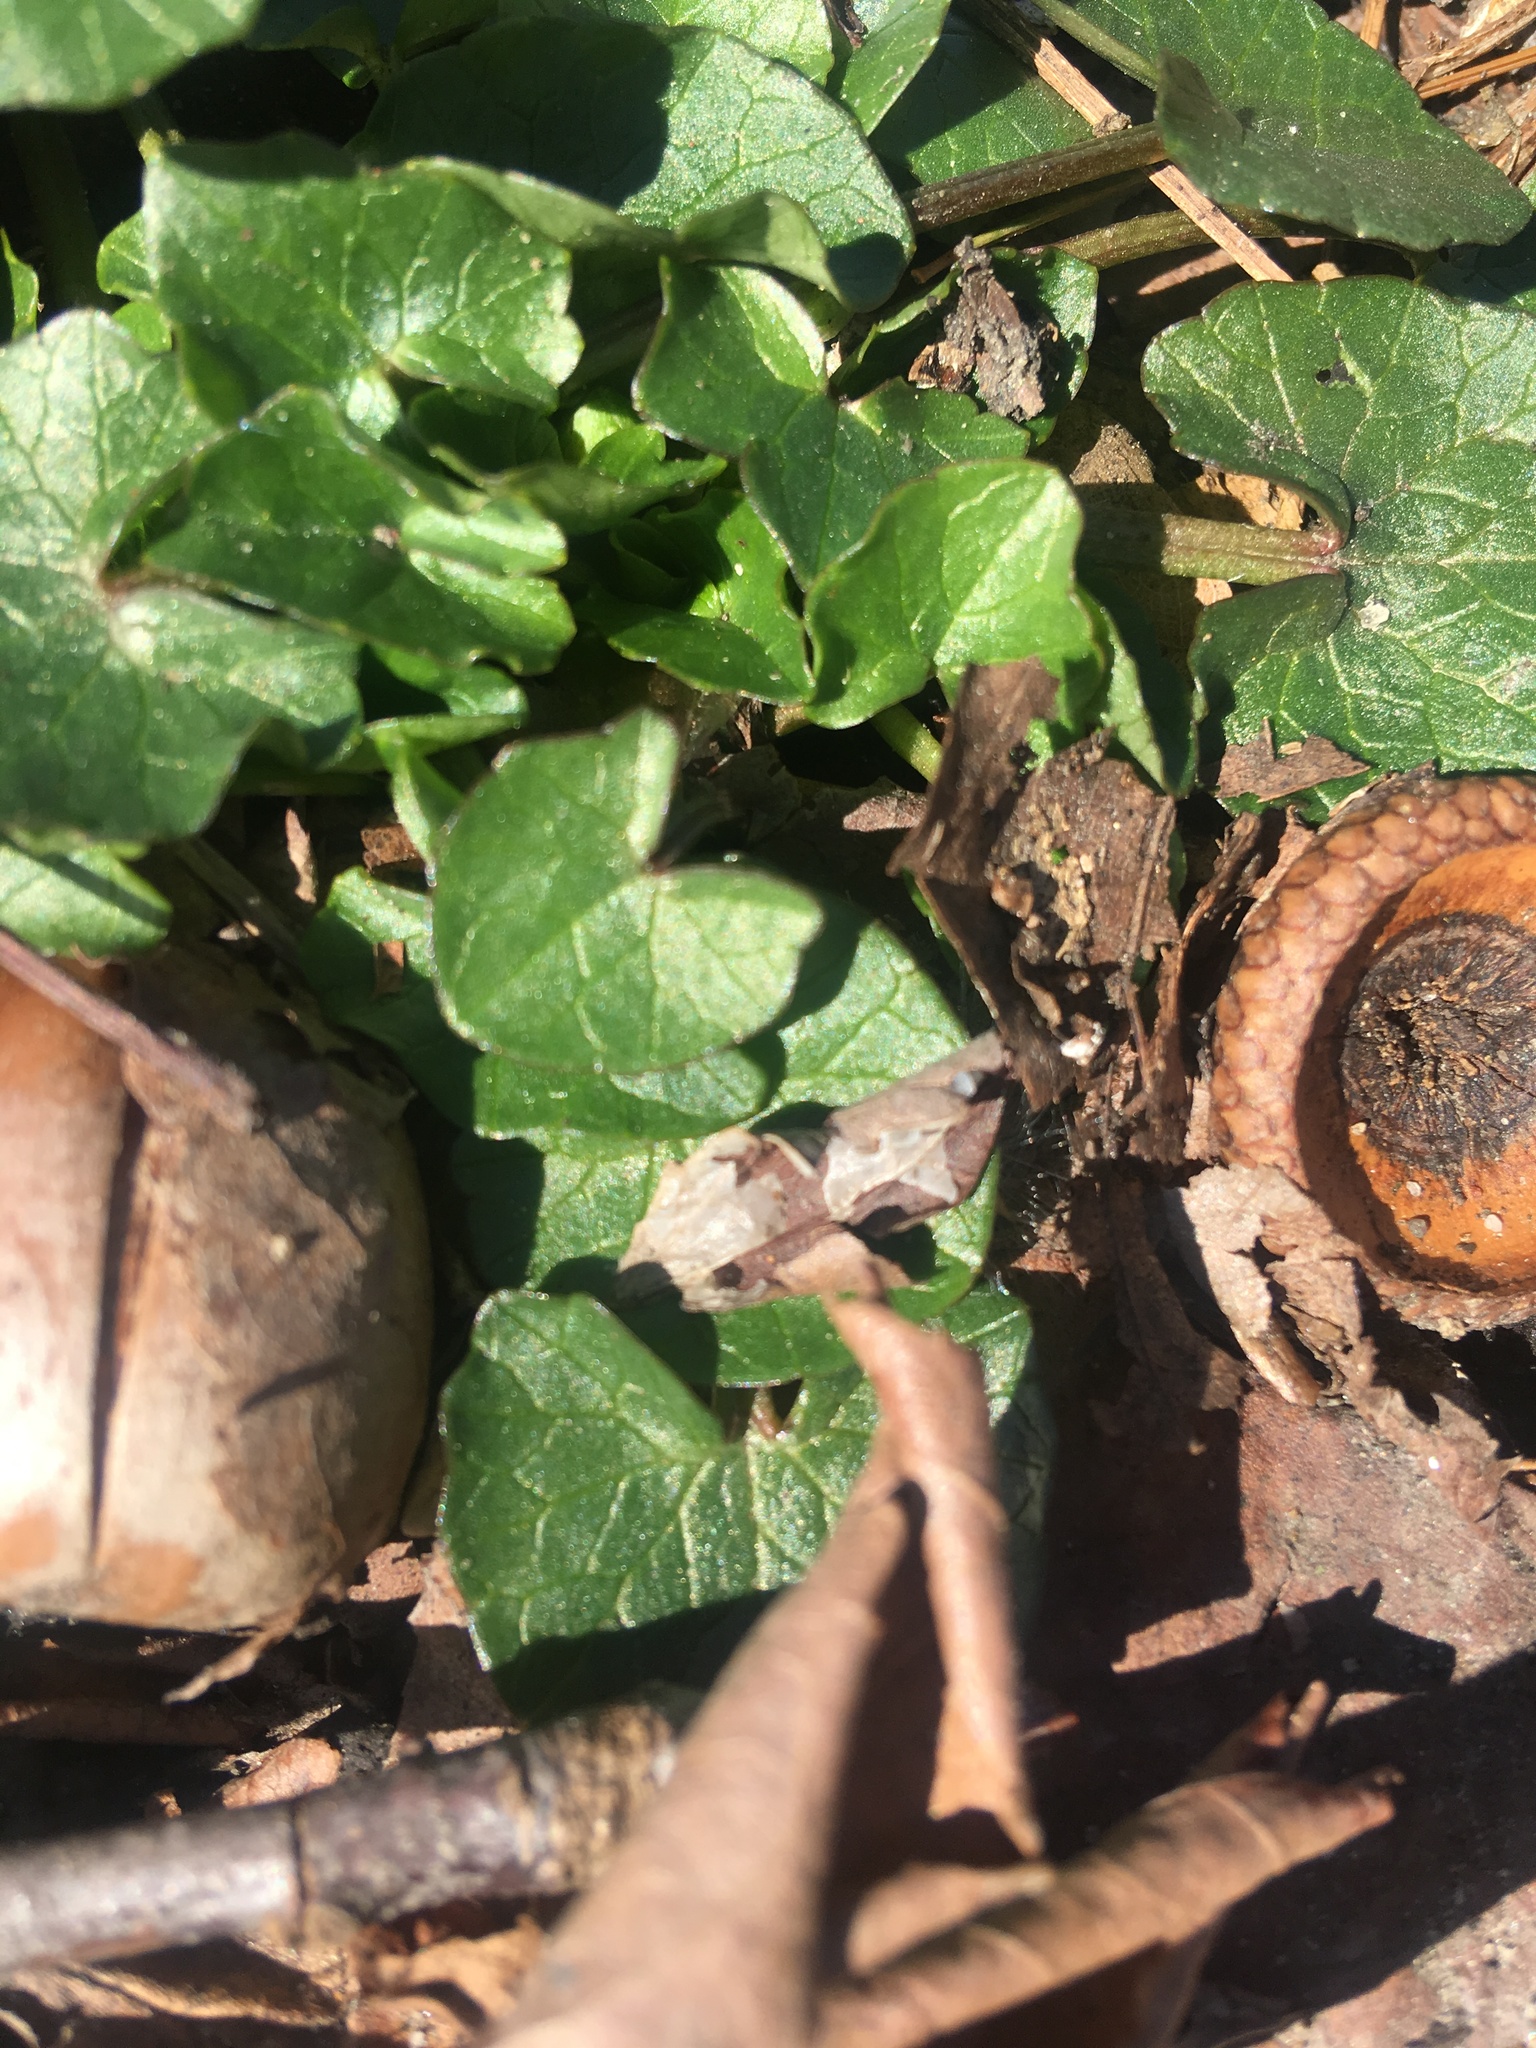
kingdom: Plantae
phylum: Tracheophyta
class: Magnoliopsida
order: Ranunculales
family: Ranunculaceae
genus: Ficaria
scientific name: Ficaria verna
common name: Lesser celandine
